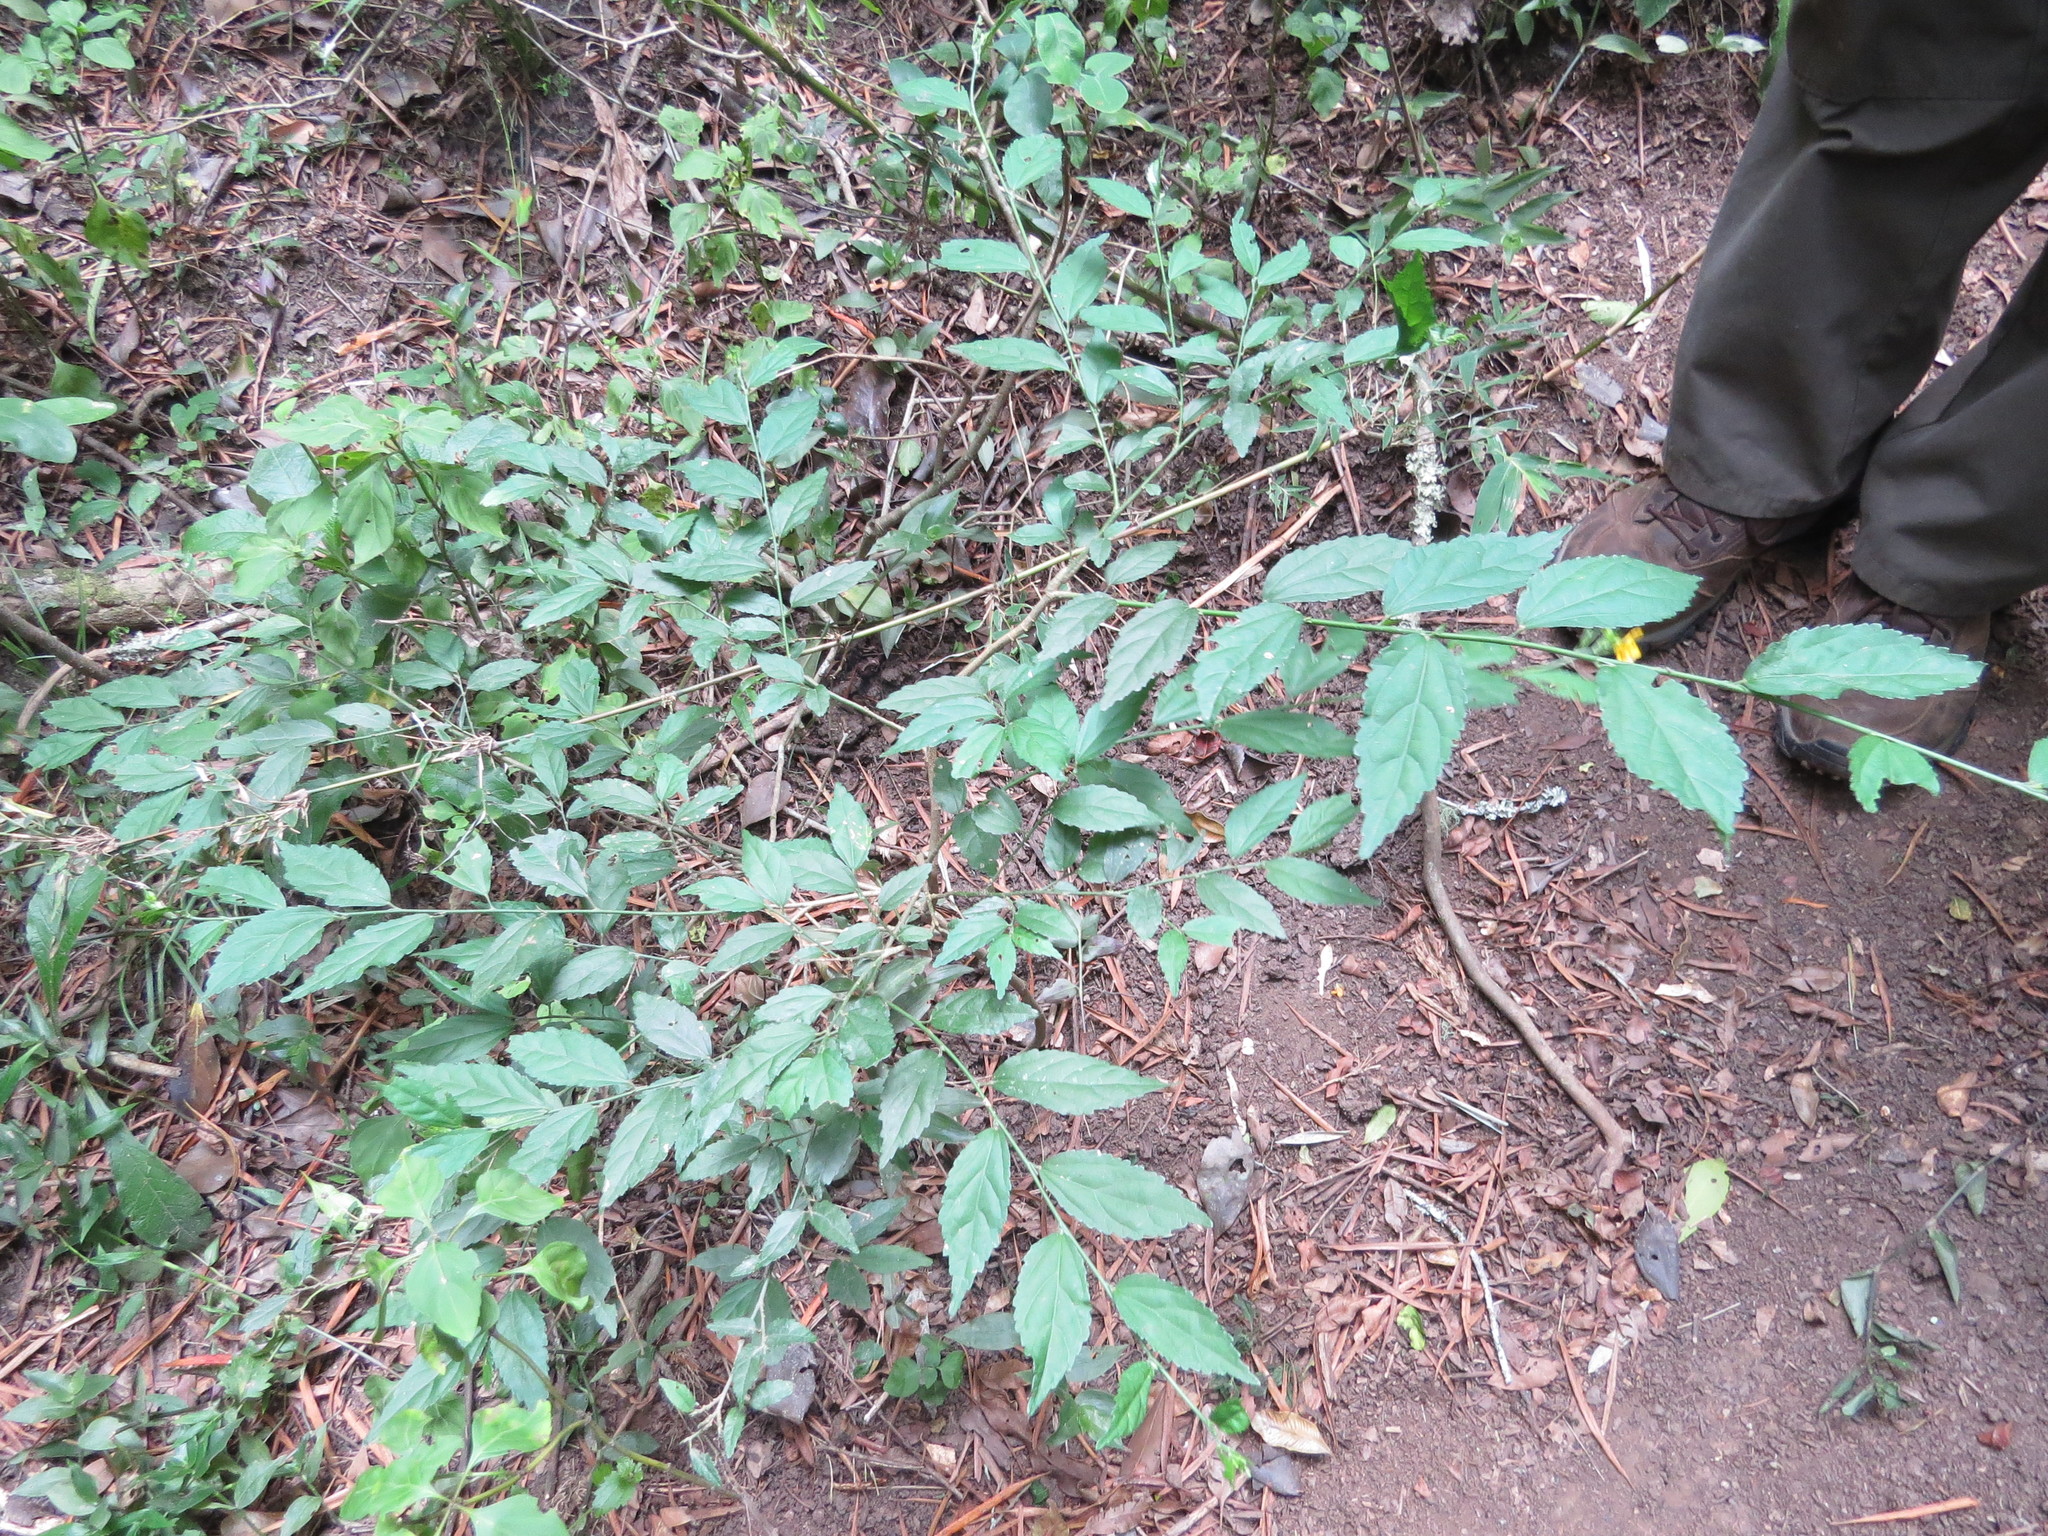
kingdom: Plantae
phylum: Tracheophyta
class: Magnoliopsida
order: Malvales
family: Malvaceae
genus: Pavonia
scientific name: Pavonia sepium
